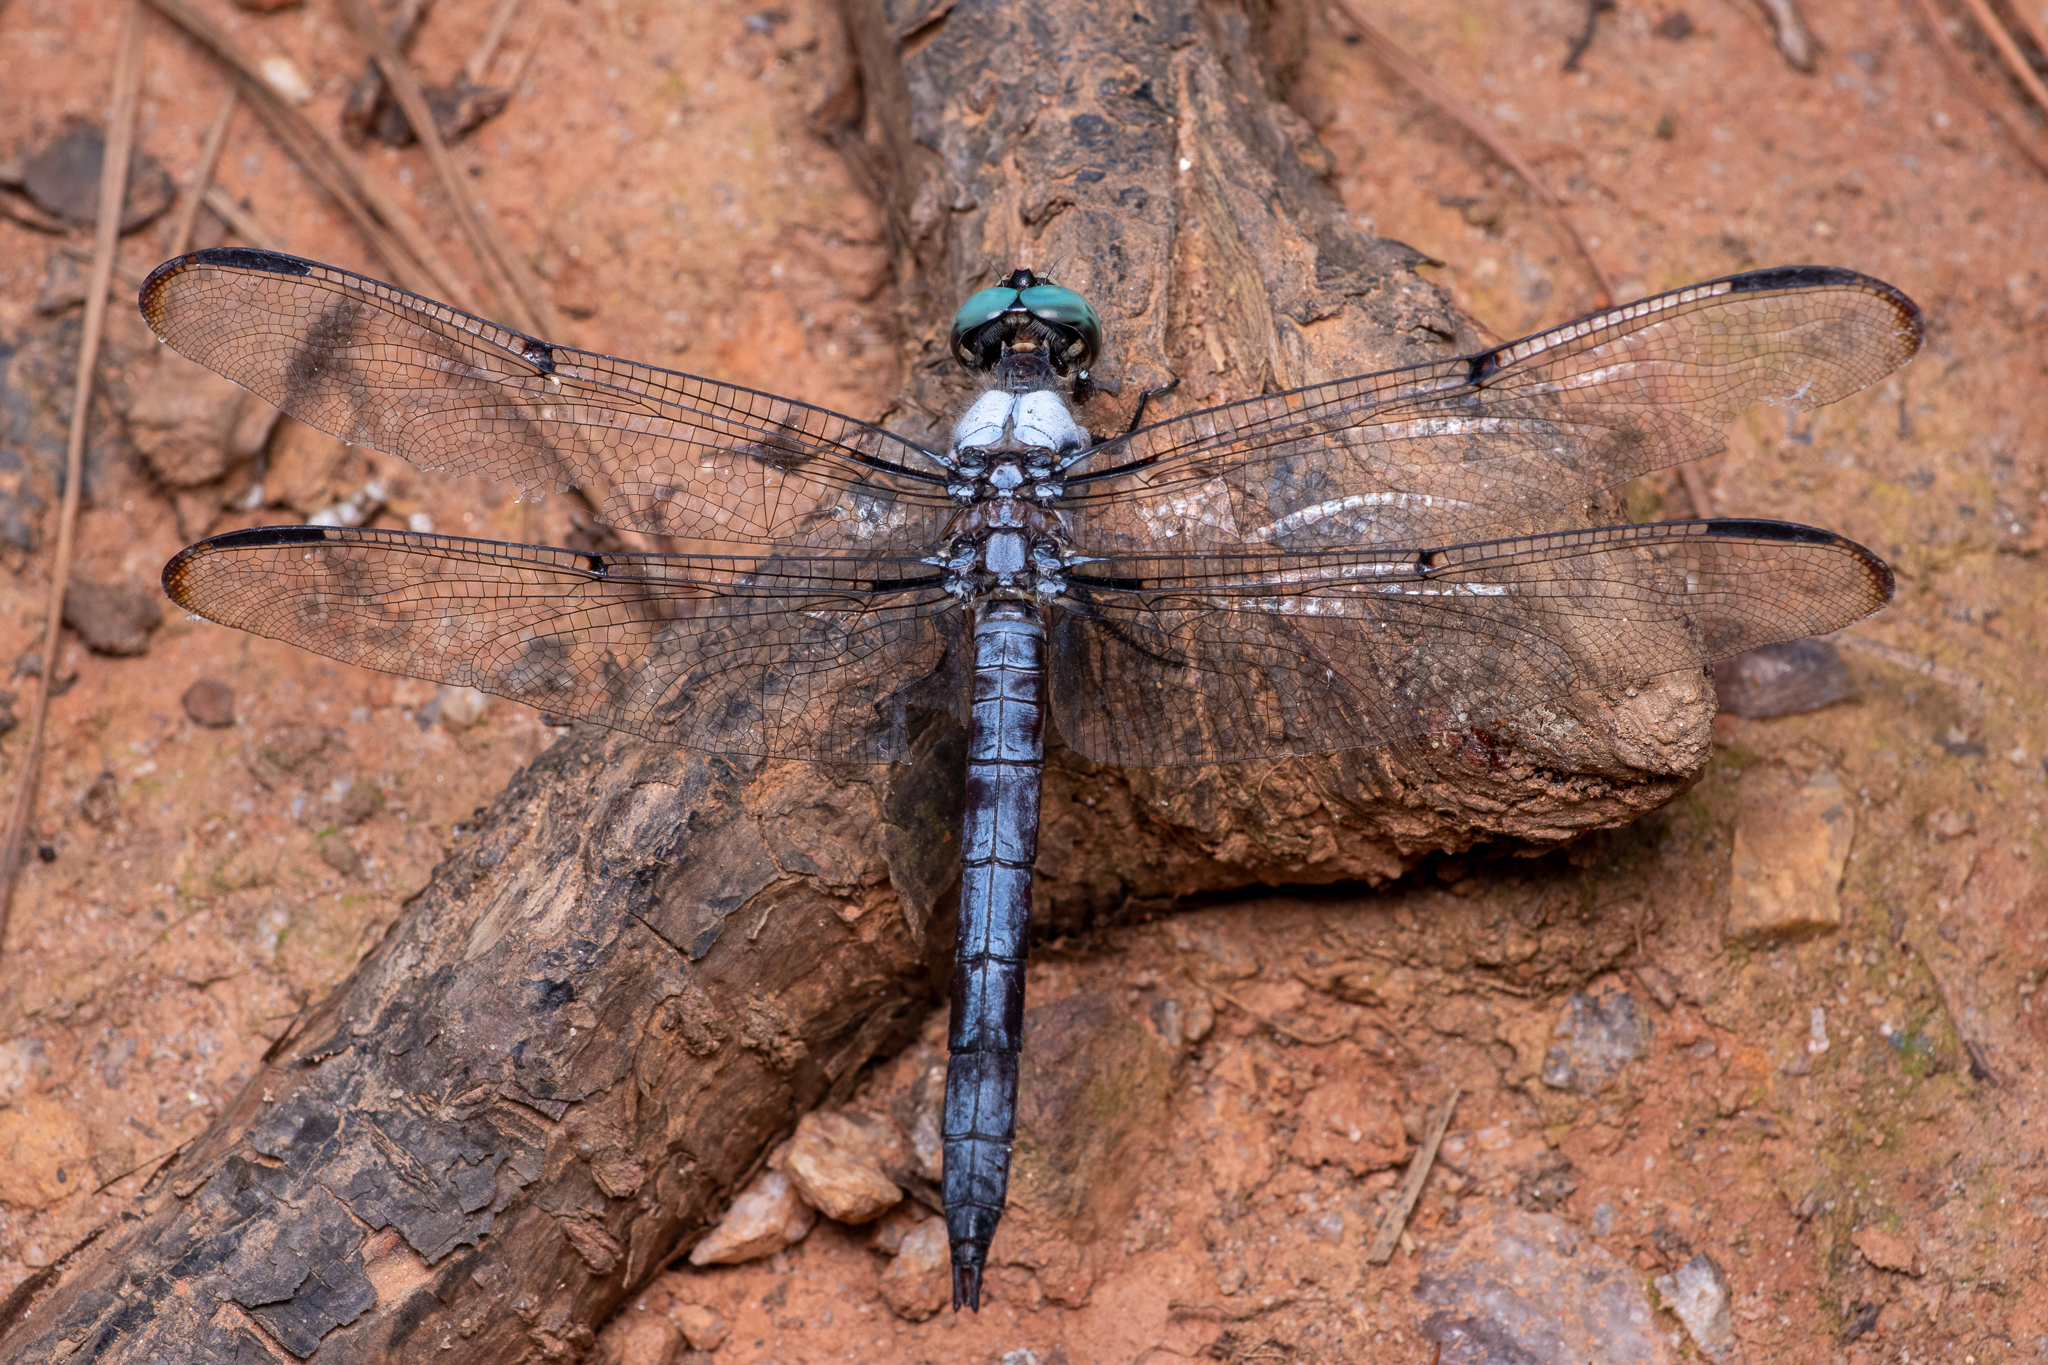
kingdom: Animalia
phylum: Arthropoda
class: Insecta
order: Odonata
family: Libellulidae
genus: Libellula
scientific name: Libellula vibrans
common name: Great blue skimmer
